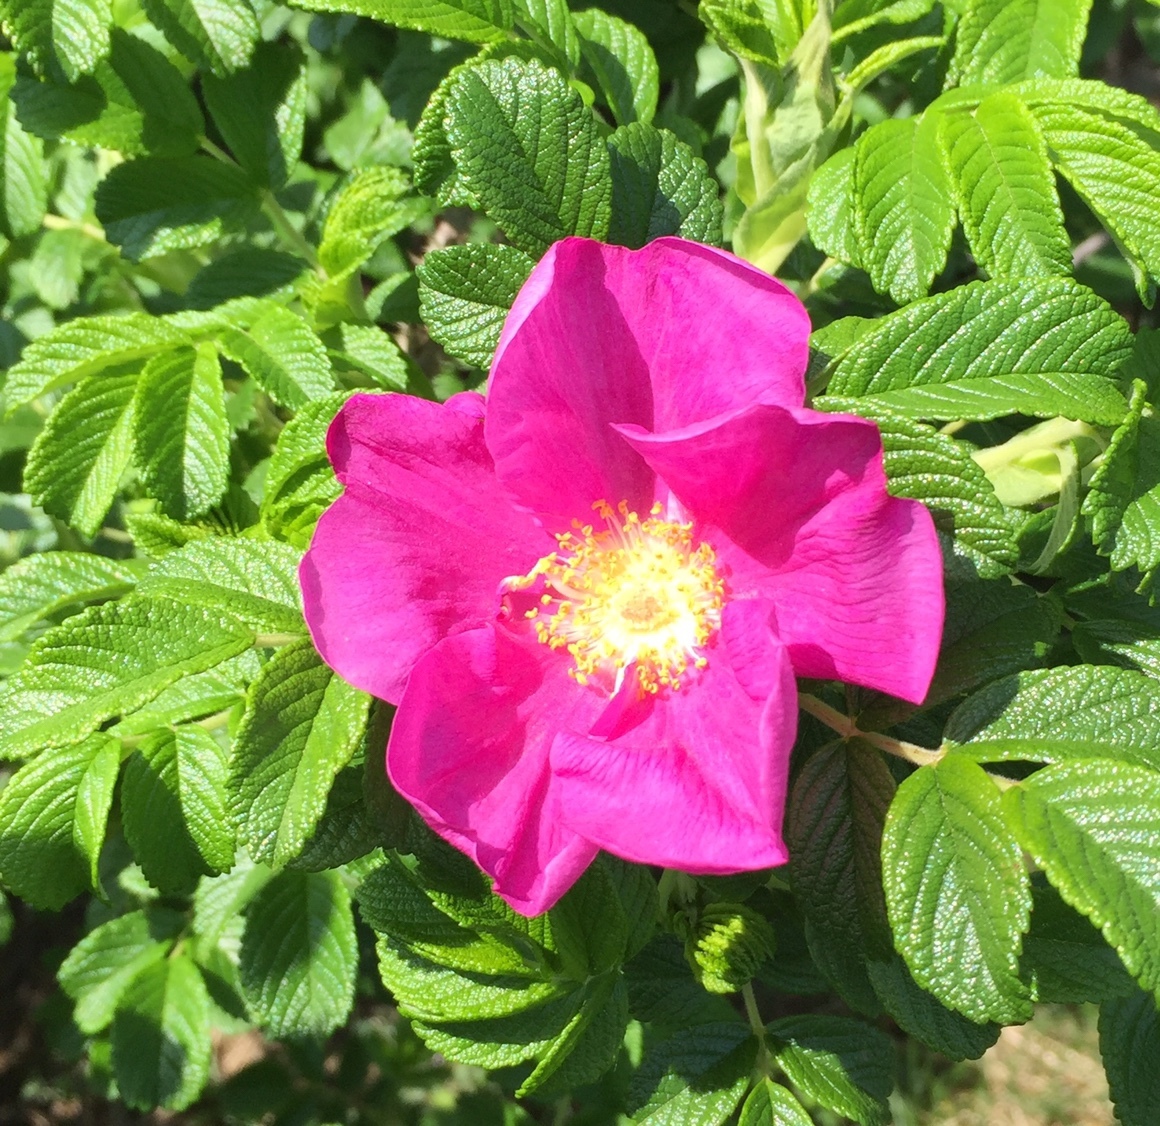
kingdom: Plantae
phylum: Tracheophyta
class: Magnoliopsida
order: Rosales
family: Rosaceae
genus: Rosa
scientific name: Rosa rugosa
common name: Japanese rose
